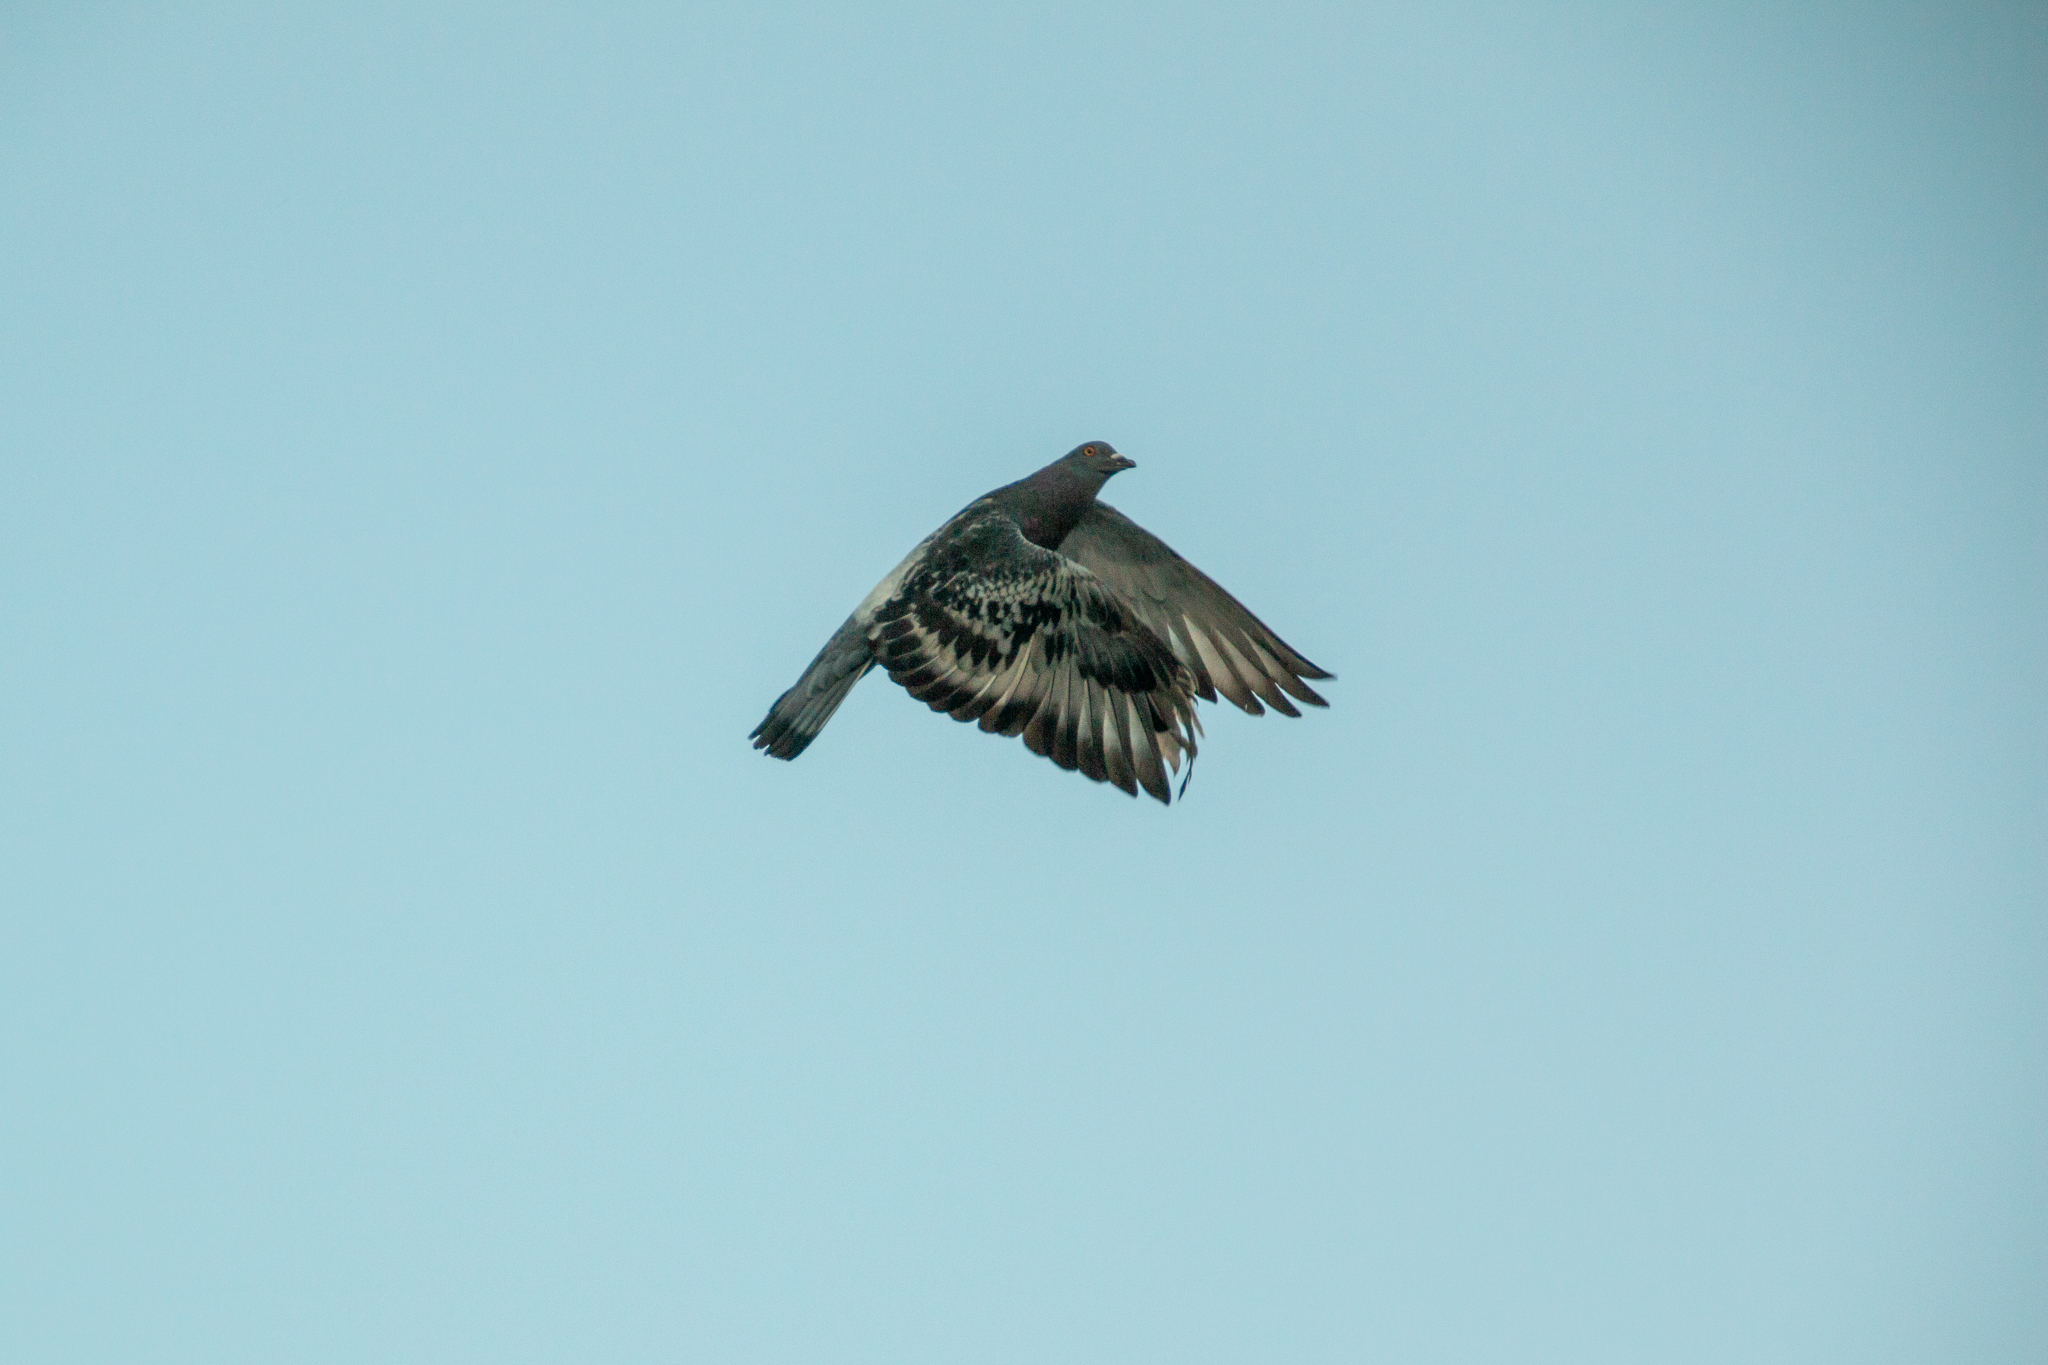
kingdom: Animalia
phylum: Chordata
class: Aves
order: Columbiformes
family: Columbidae
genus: Columba
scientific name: Columba livia
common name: Rock pigeon
